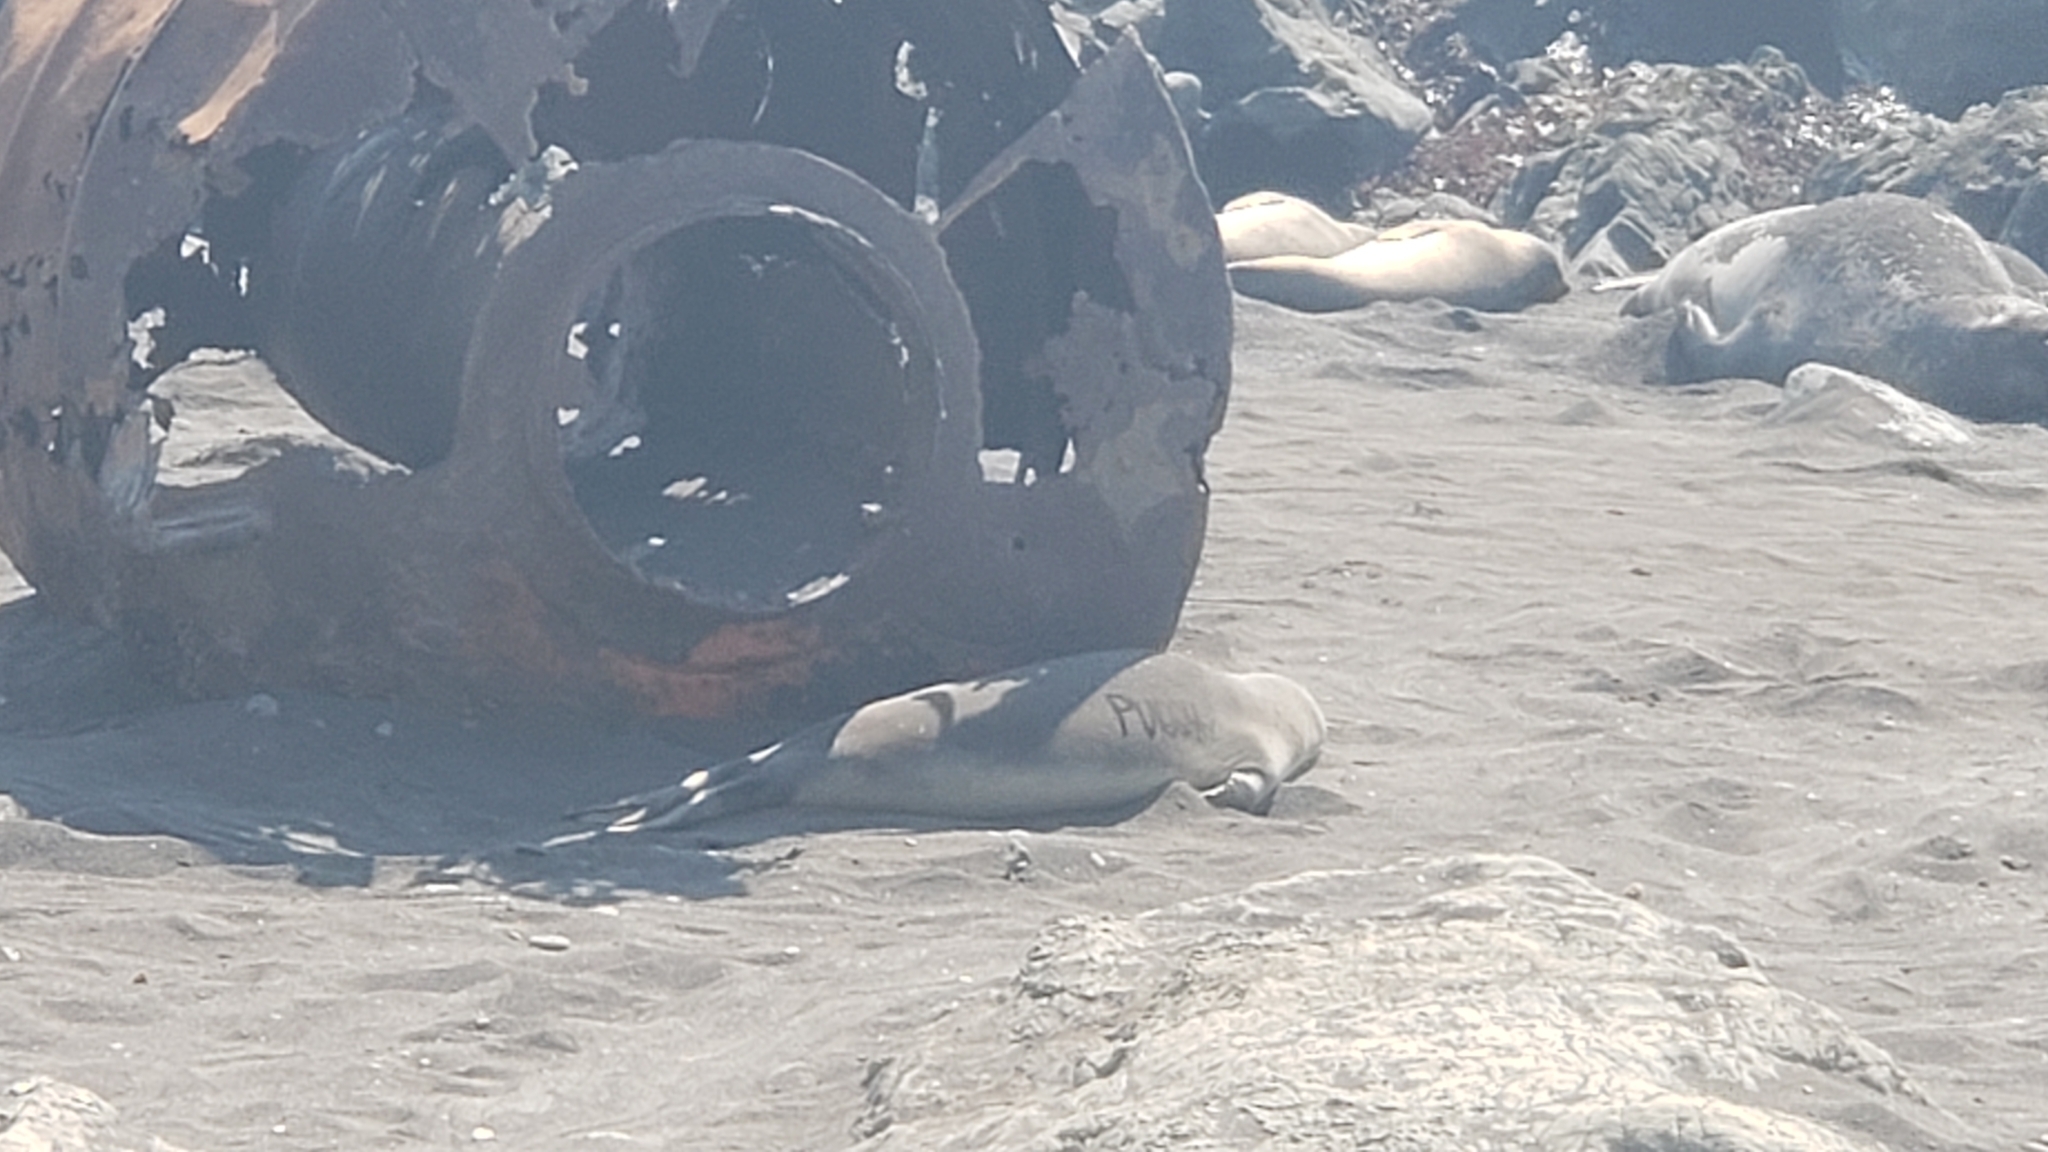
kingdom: Animalia
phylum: Chordata
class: Mammalia
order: Carnivora
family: Phocidae
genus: Mirounga
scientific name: Mirounga angustirostris
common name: Northern elephant seal
